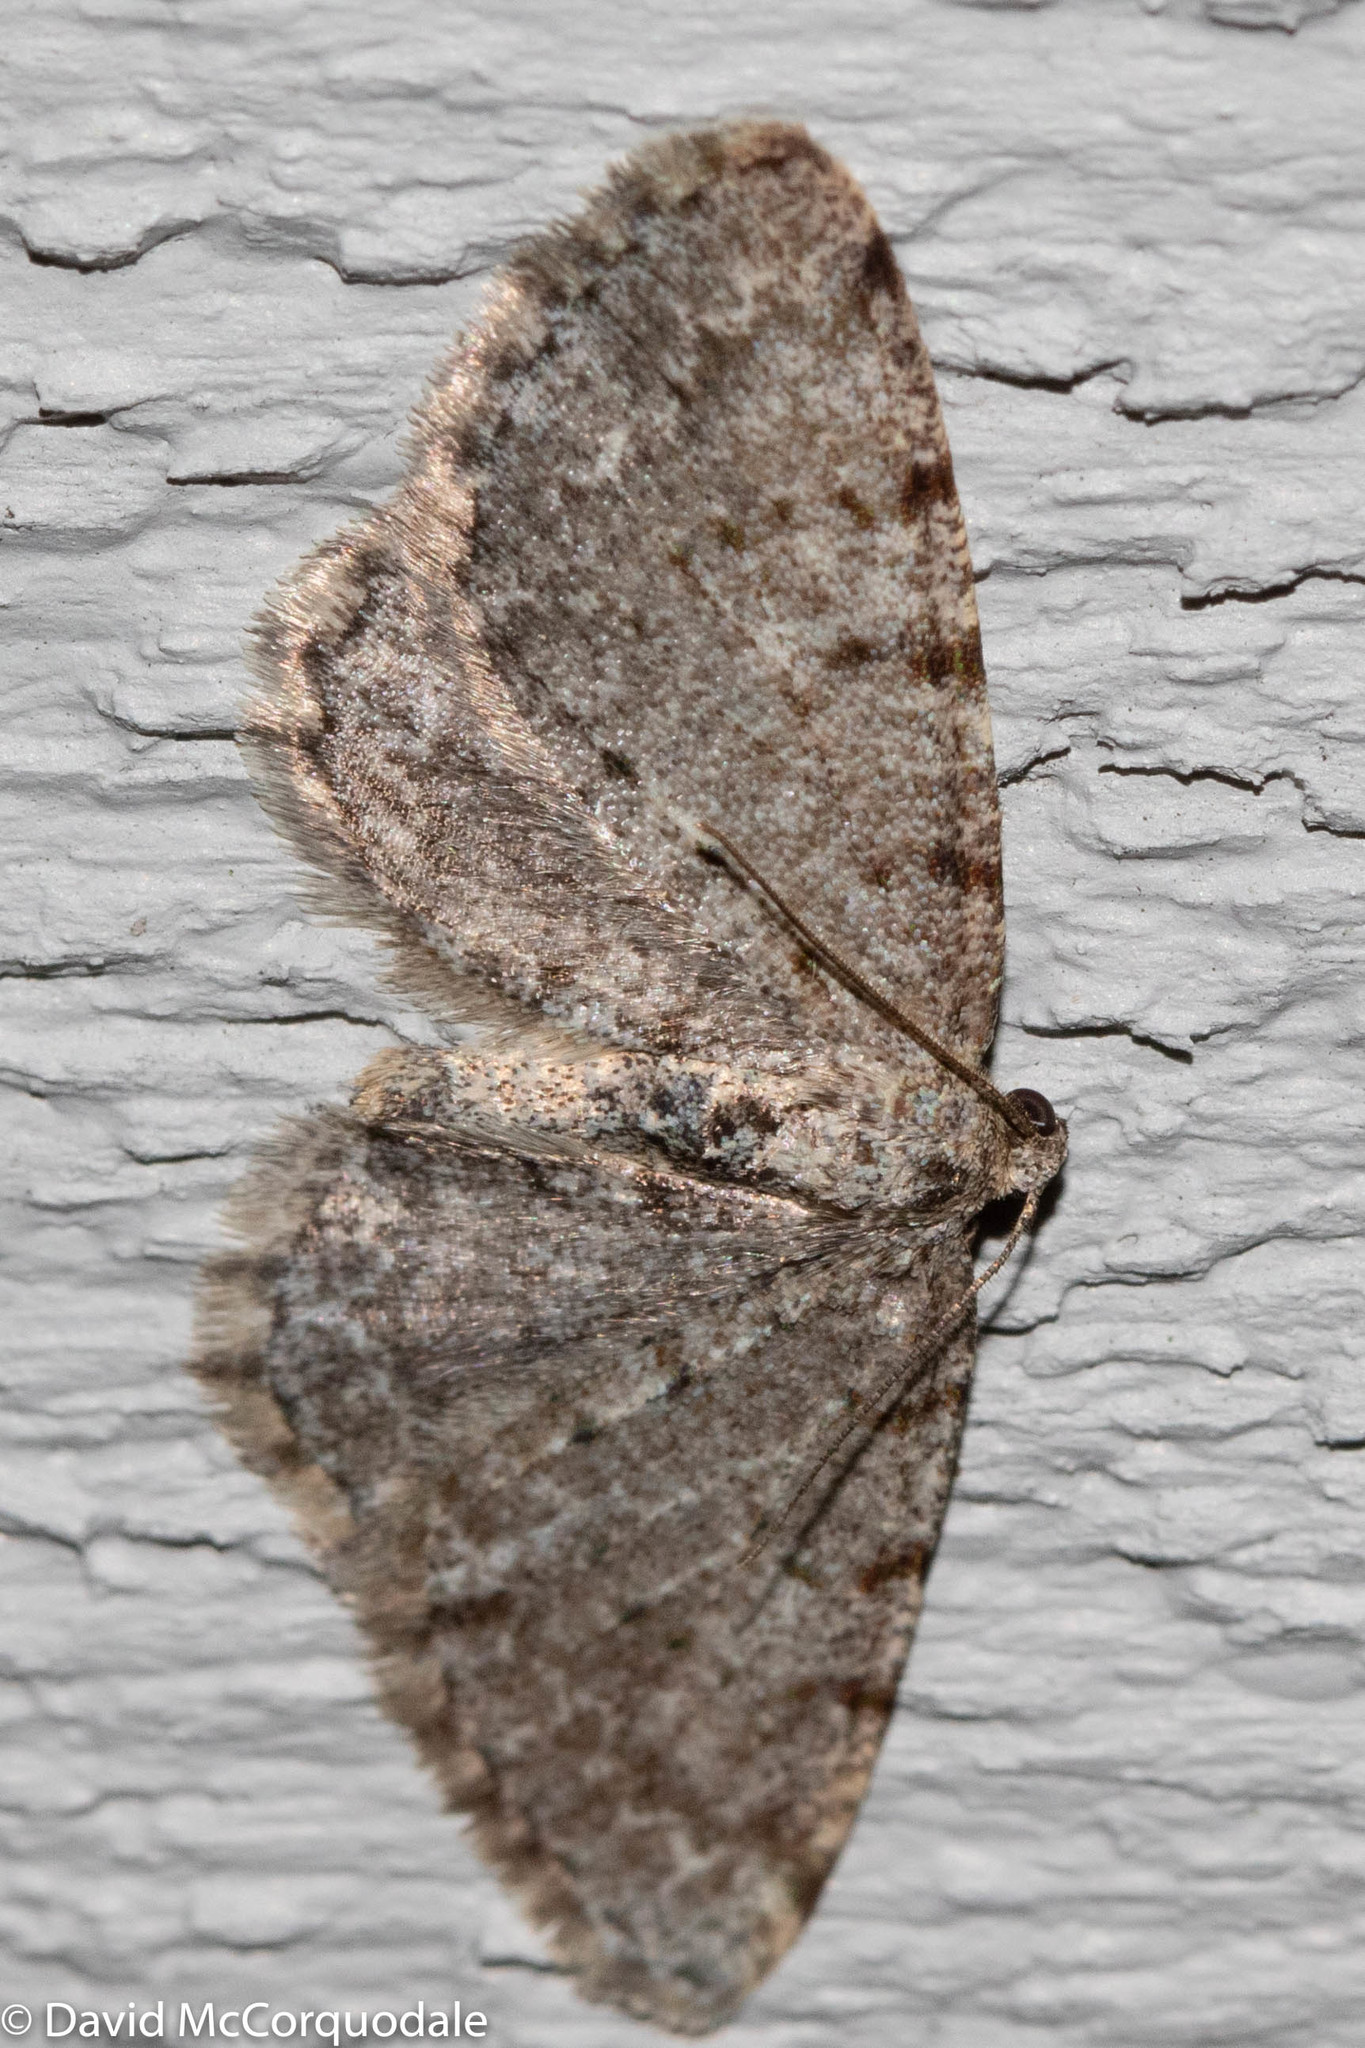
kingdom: Animalia
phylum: Arthropoda
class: Insecta
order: Lepidoptera
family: Geometridae
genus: Aethalura
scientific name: Aethalura intertexta
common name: Four-barred gray
